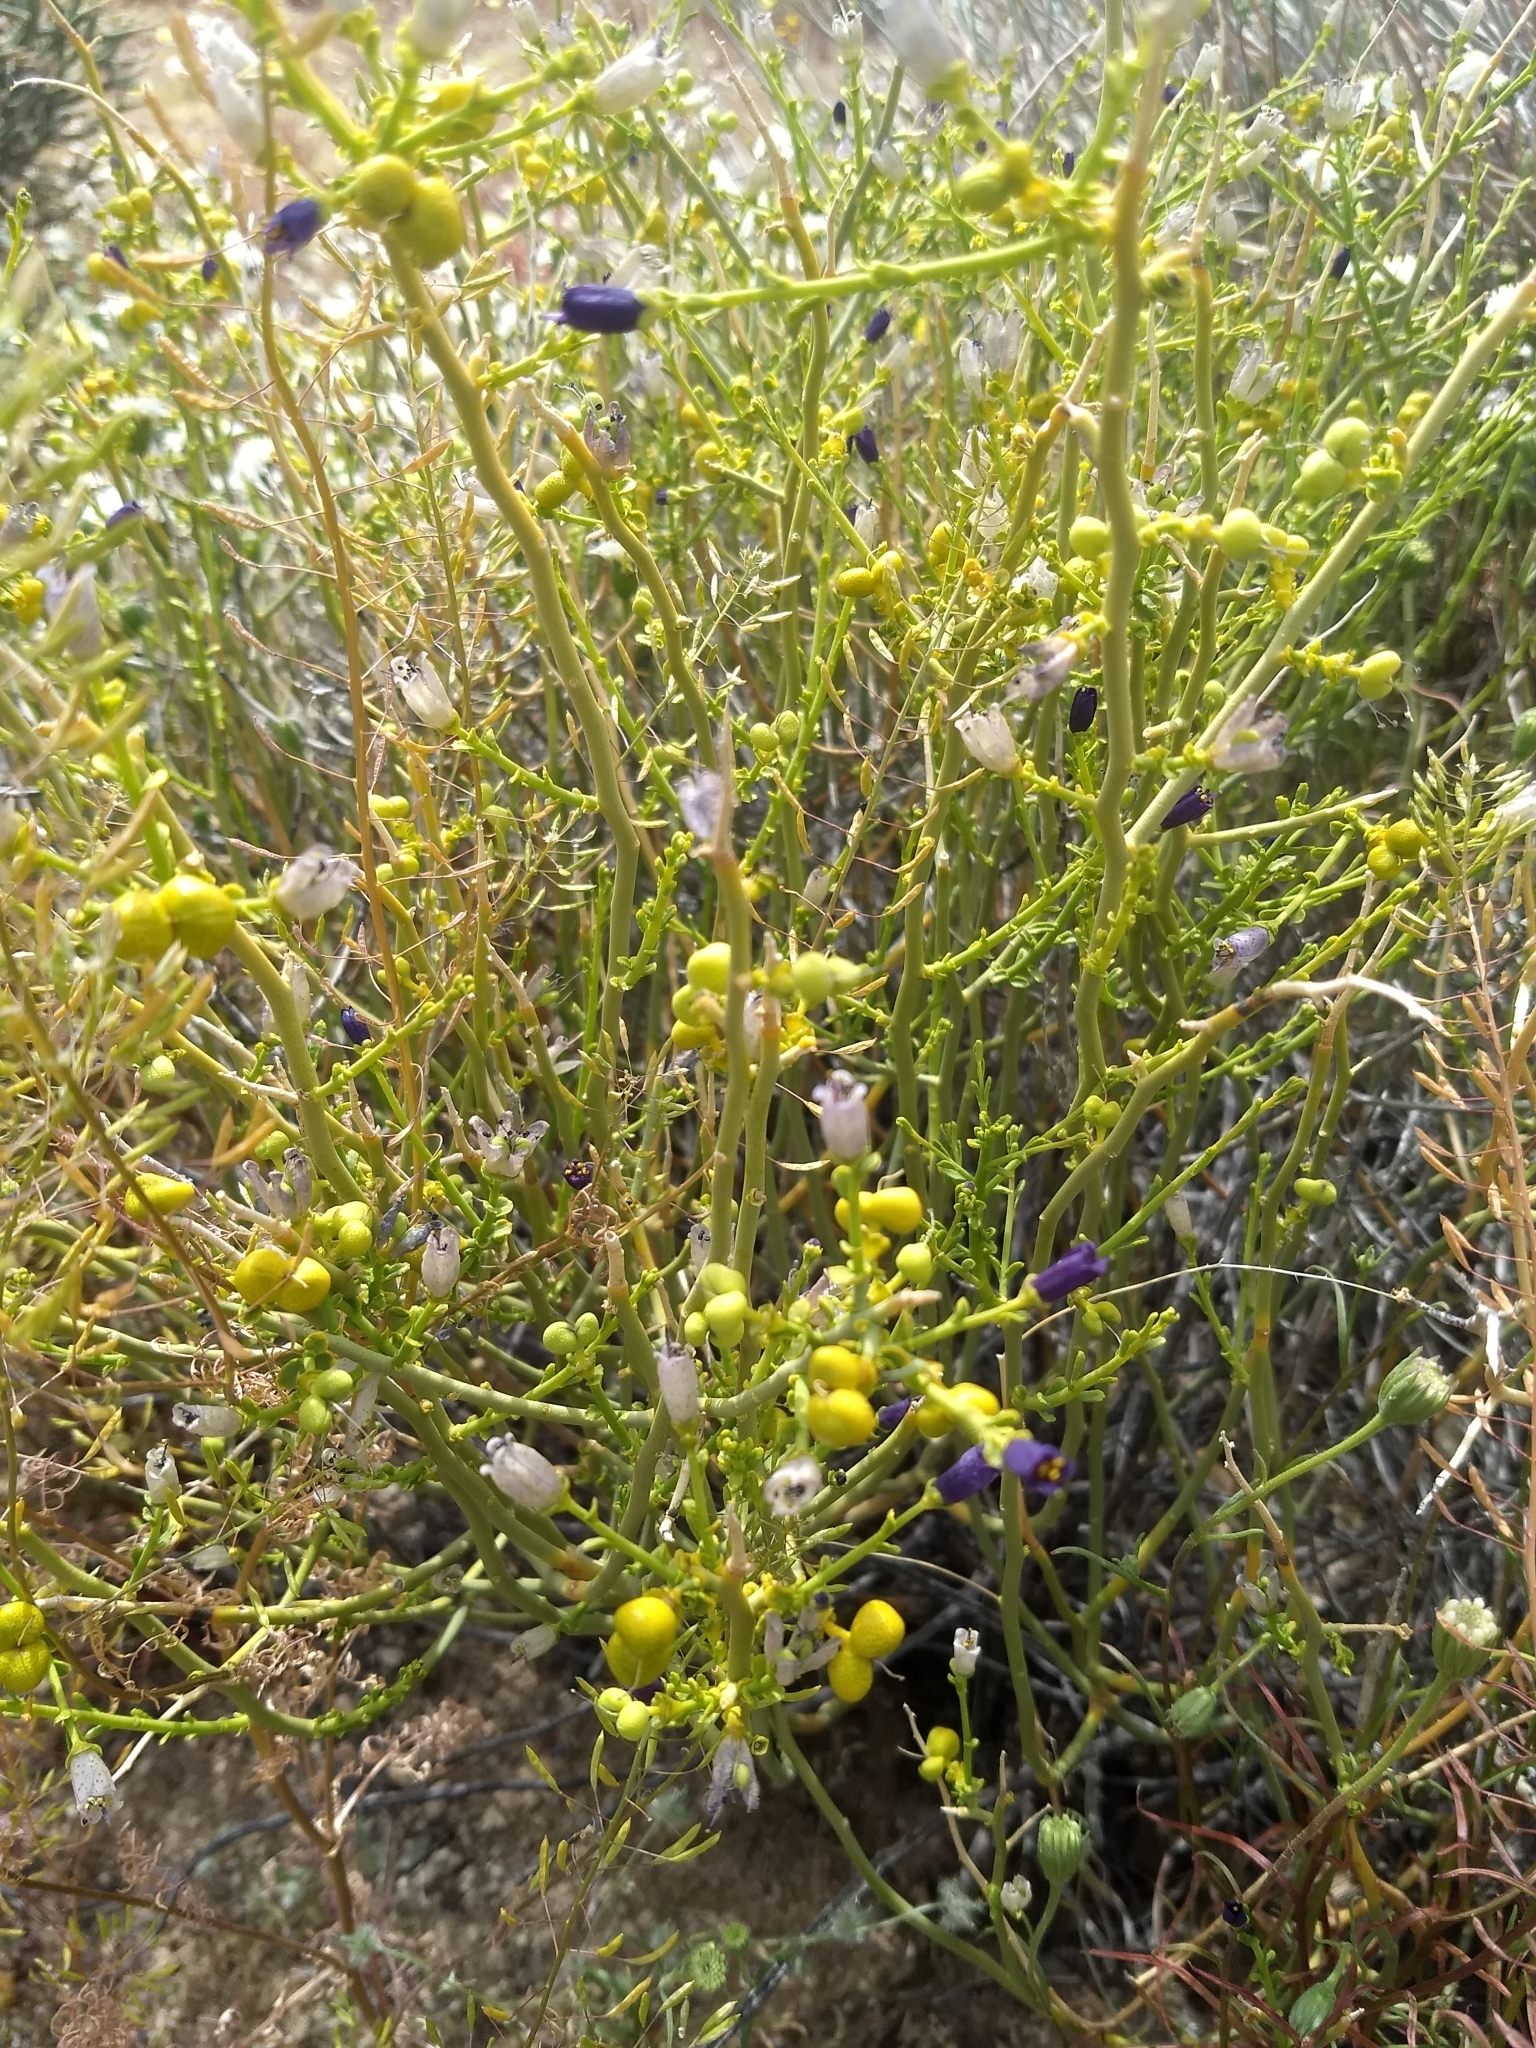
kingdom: Plantae
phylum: Tracheophyta
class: Magnoliopsida
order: Sapindales
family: Rutaceae
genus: Thamnosma
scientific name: Thamnosma montana
